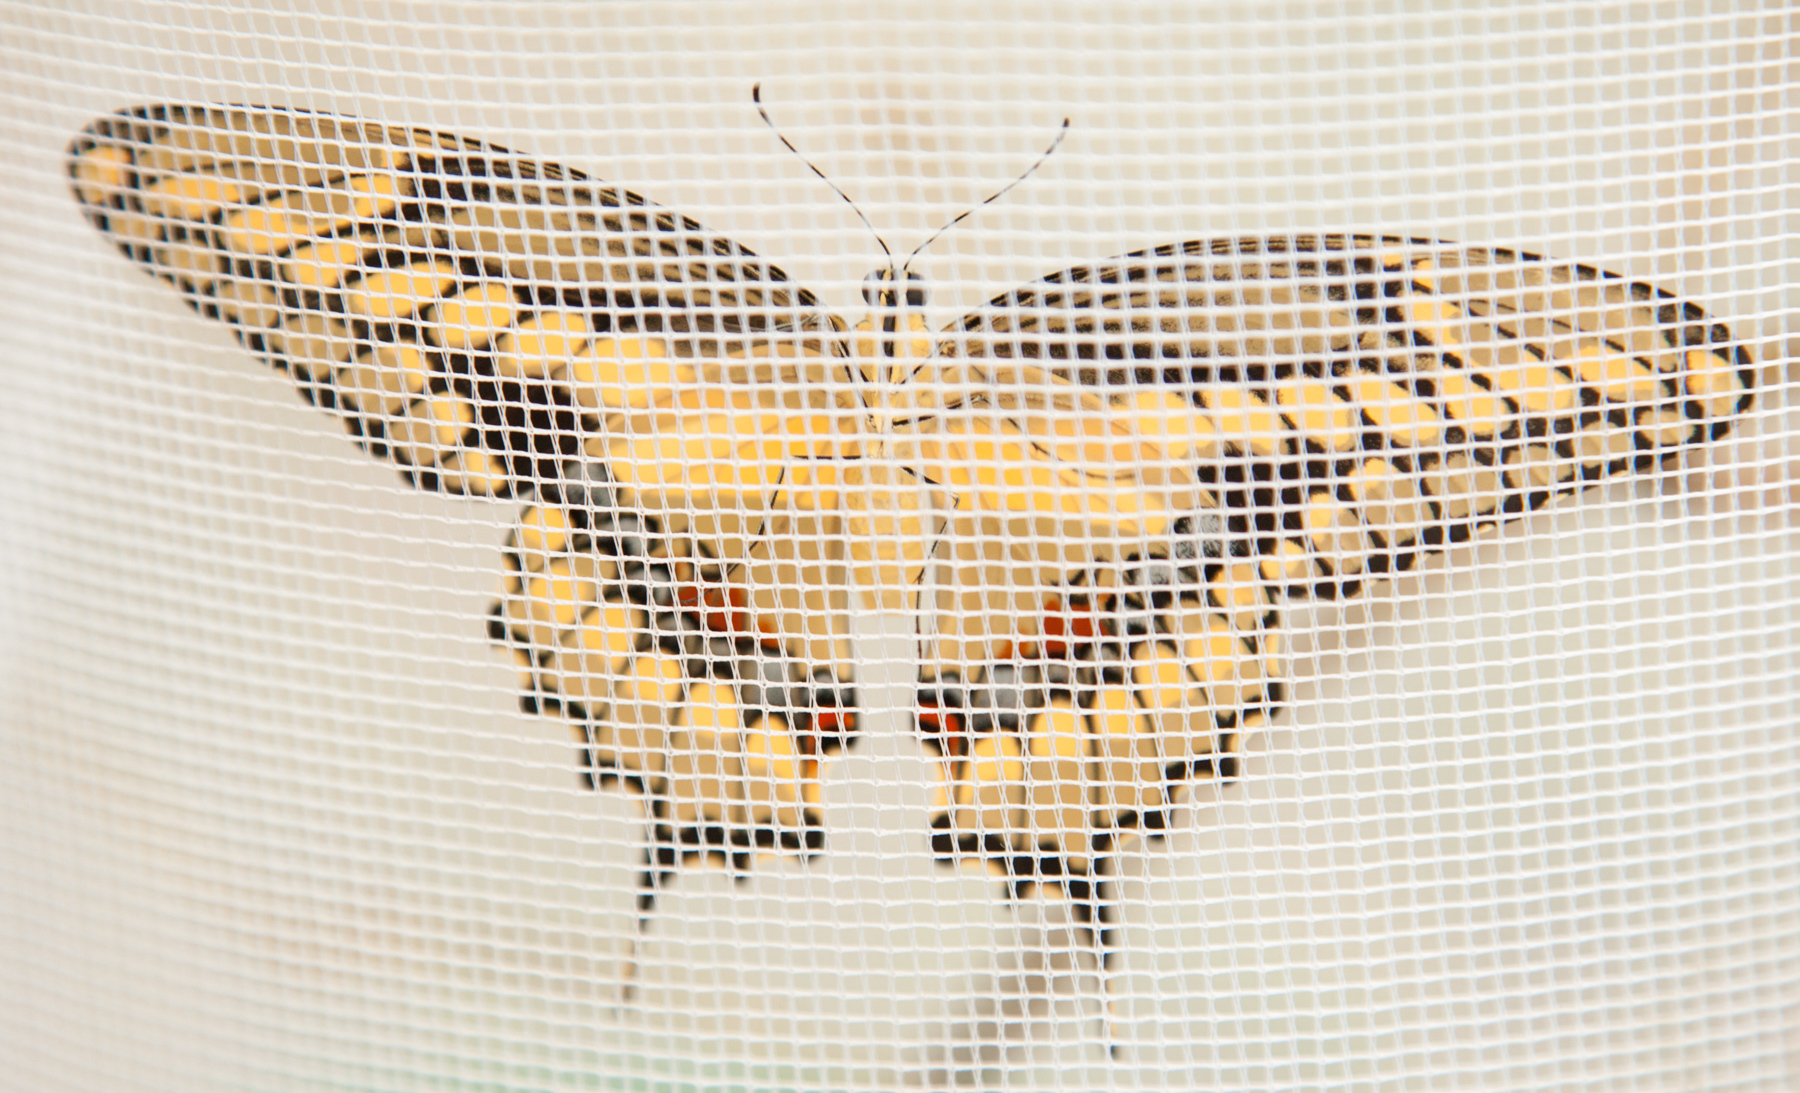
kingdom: Animalia
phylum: Arthropoda
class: Insecta
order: Lepidoptera
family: Papilionidae
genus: Papilio
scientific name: Papilio rumiko
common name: Western giant swallowtail
